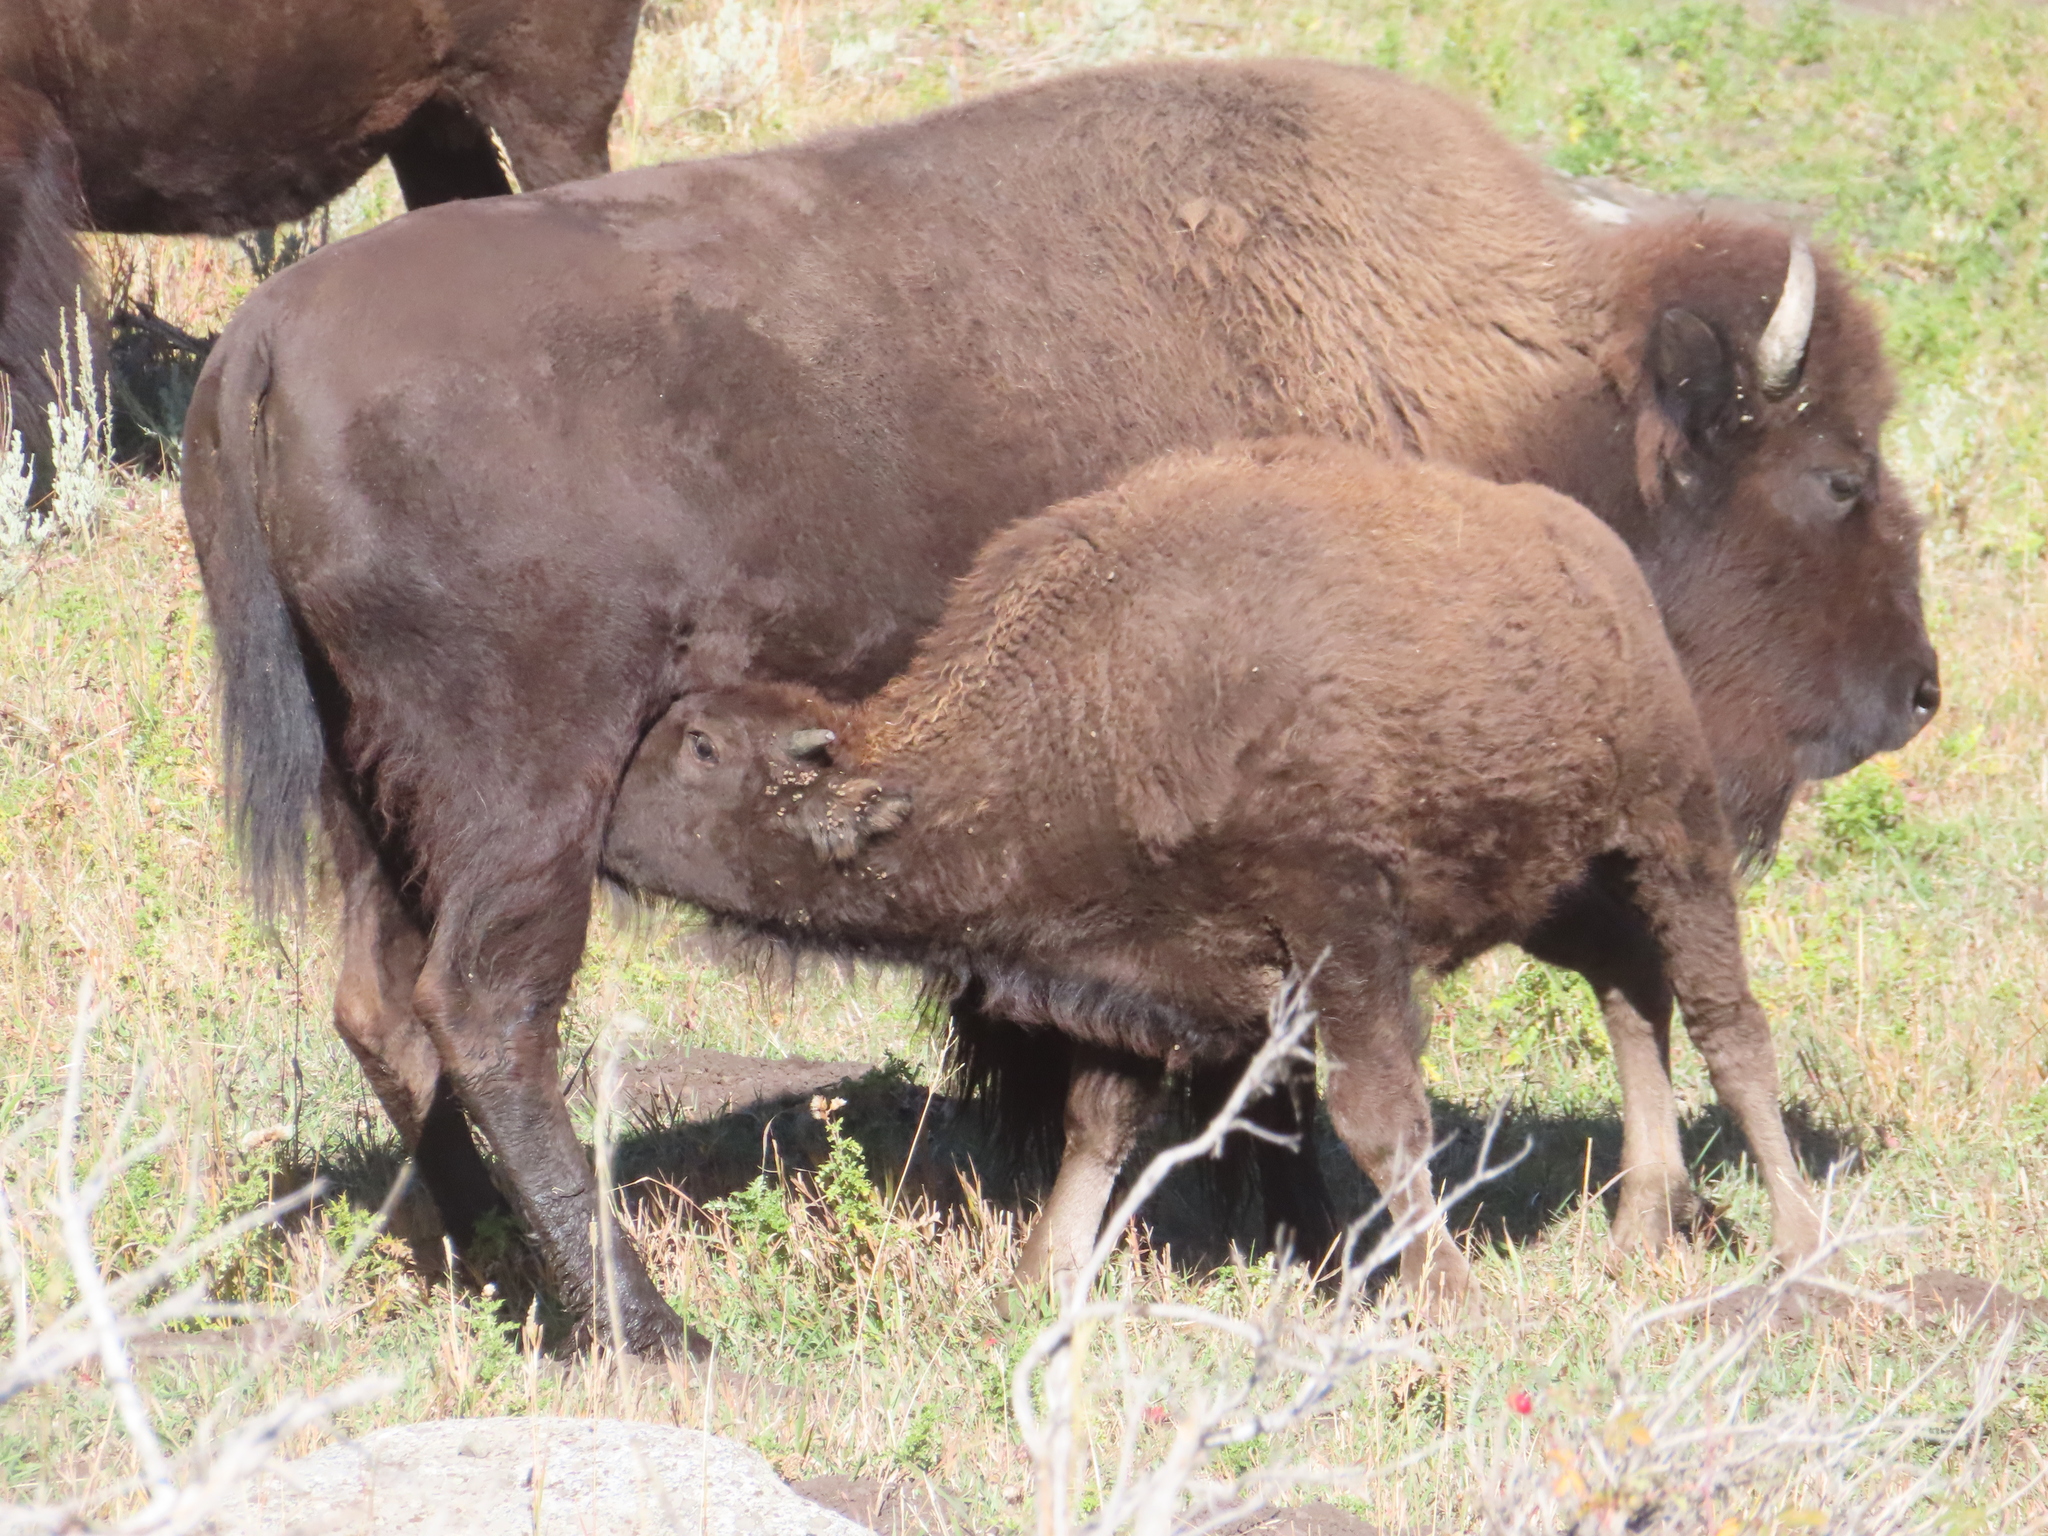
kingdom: Animalia
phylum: Chordata
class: Mammalia
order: Artiodactyla
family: Bovidae
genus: Bison
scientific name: Bison bison
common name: American bison
